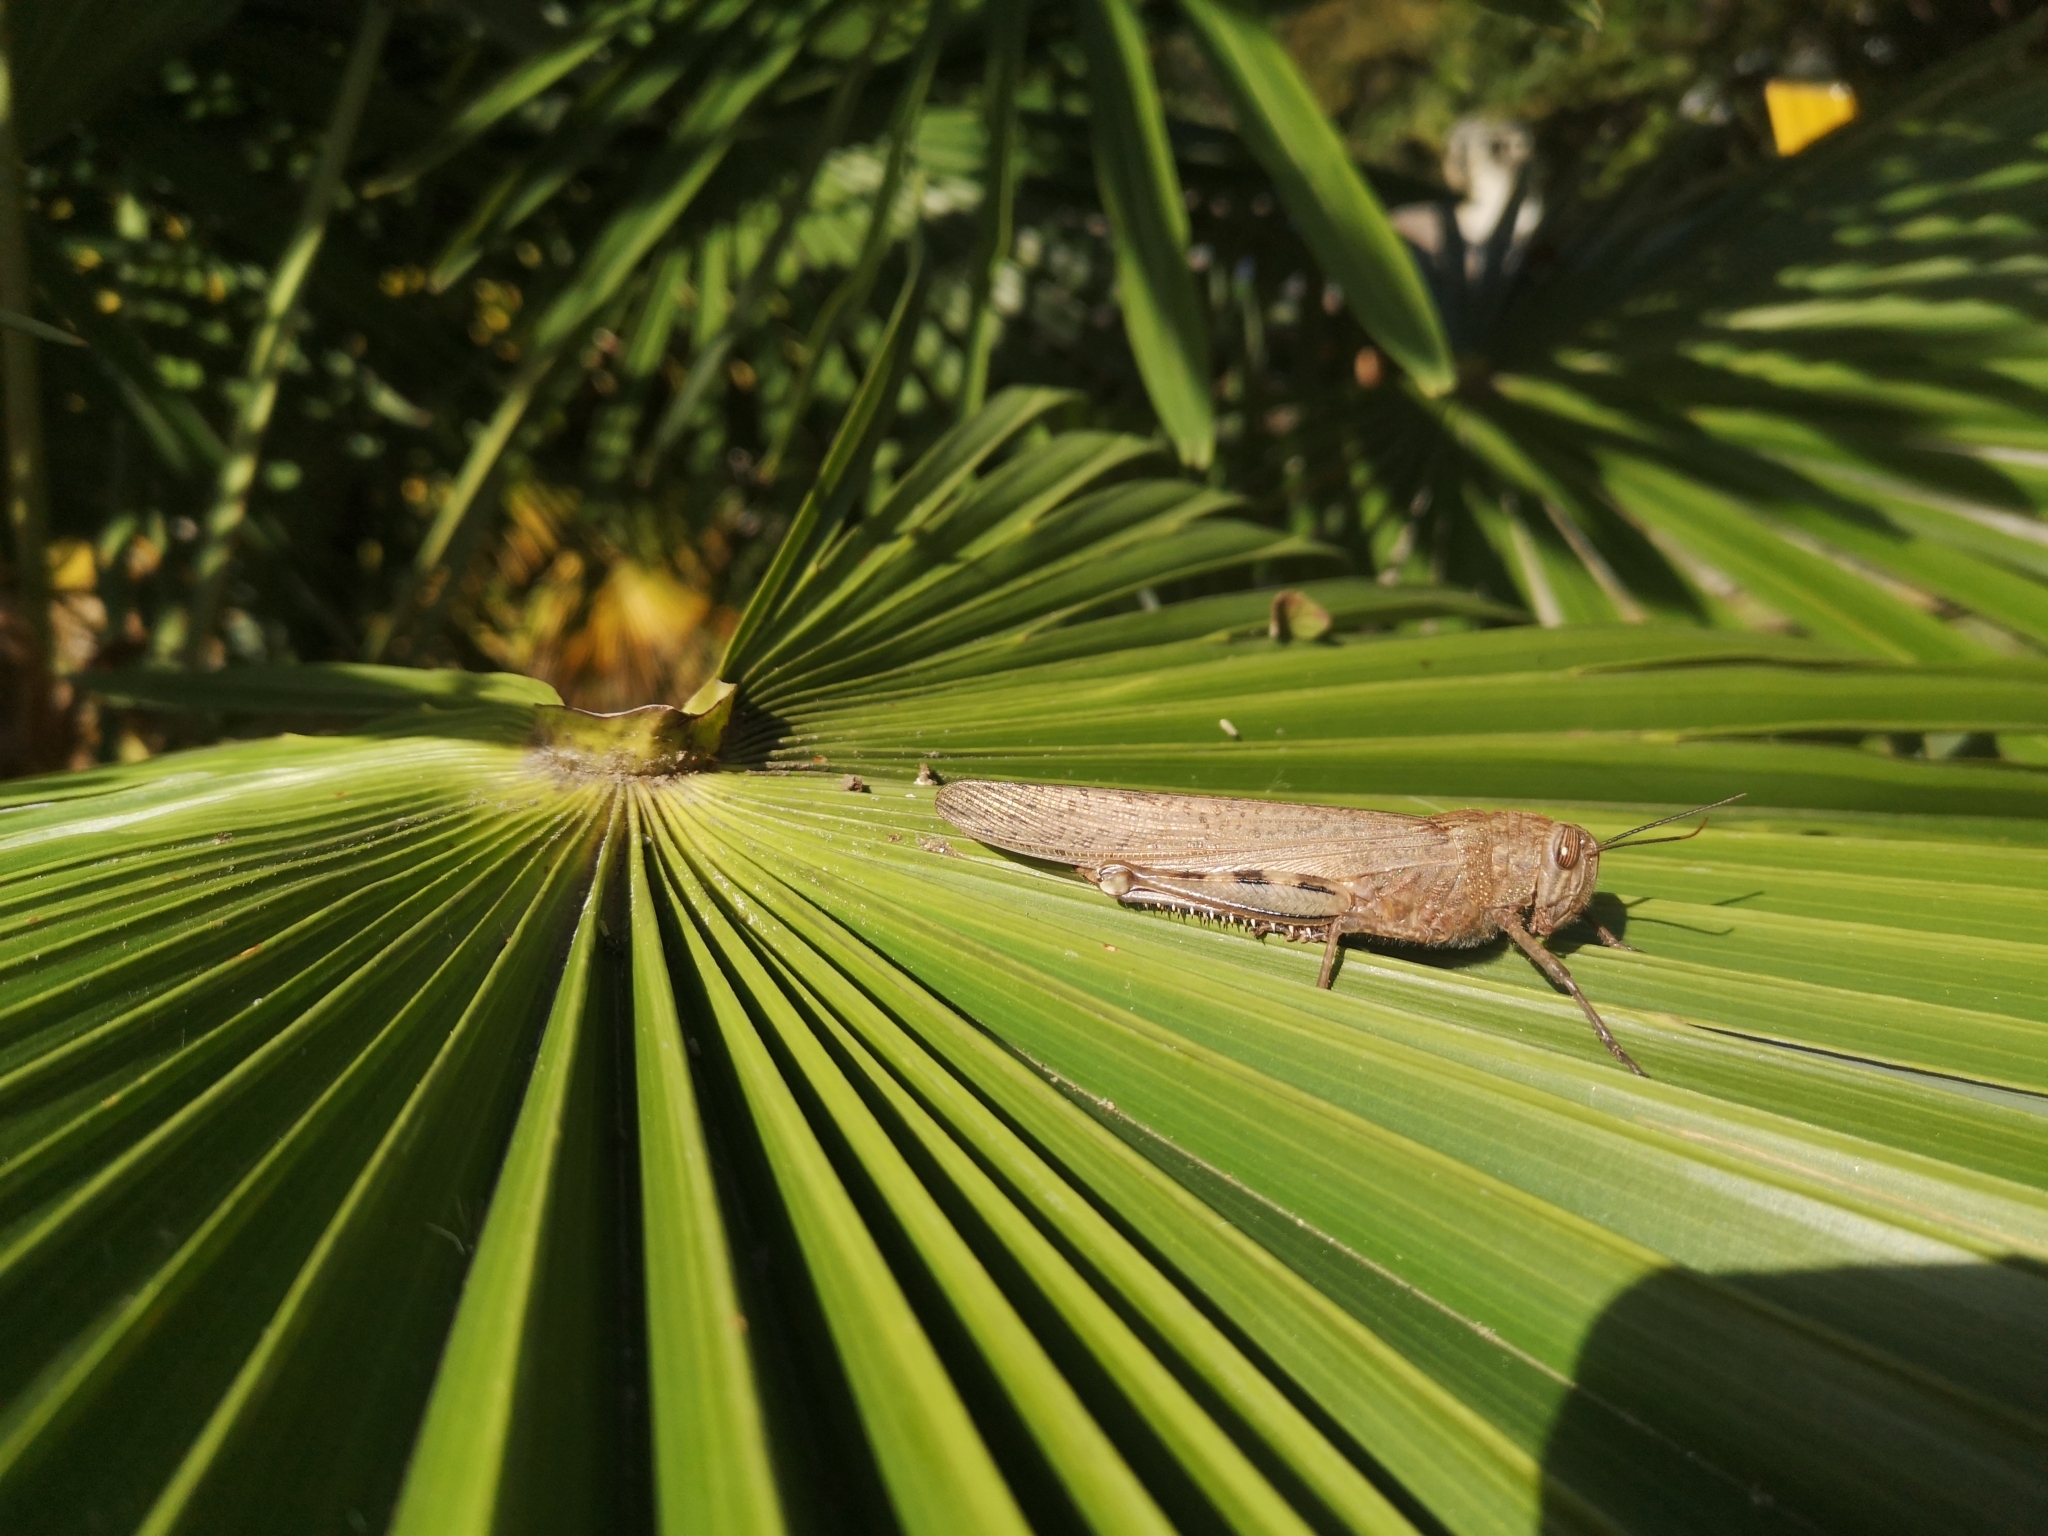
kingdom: Animalia
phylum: Arthropoda
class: Insecta
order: Orthoptera
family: Acrididae
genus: Anacridium
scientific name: Anacridium aegyptium
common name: Egyptian grasshopper
